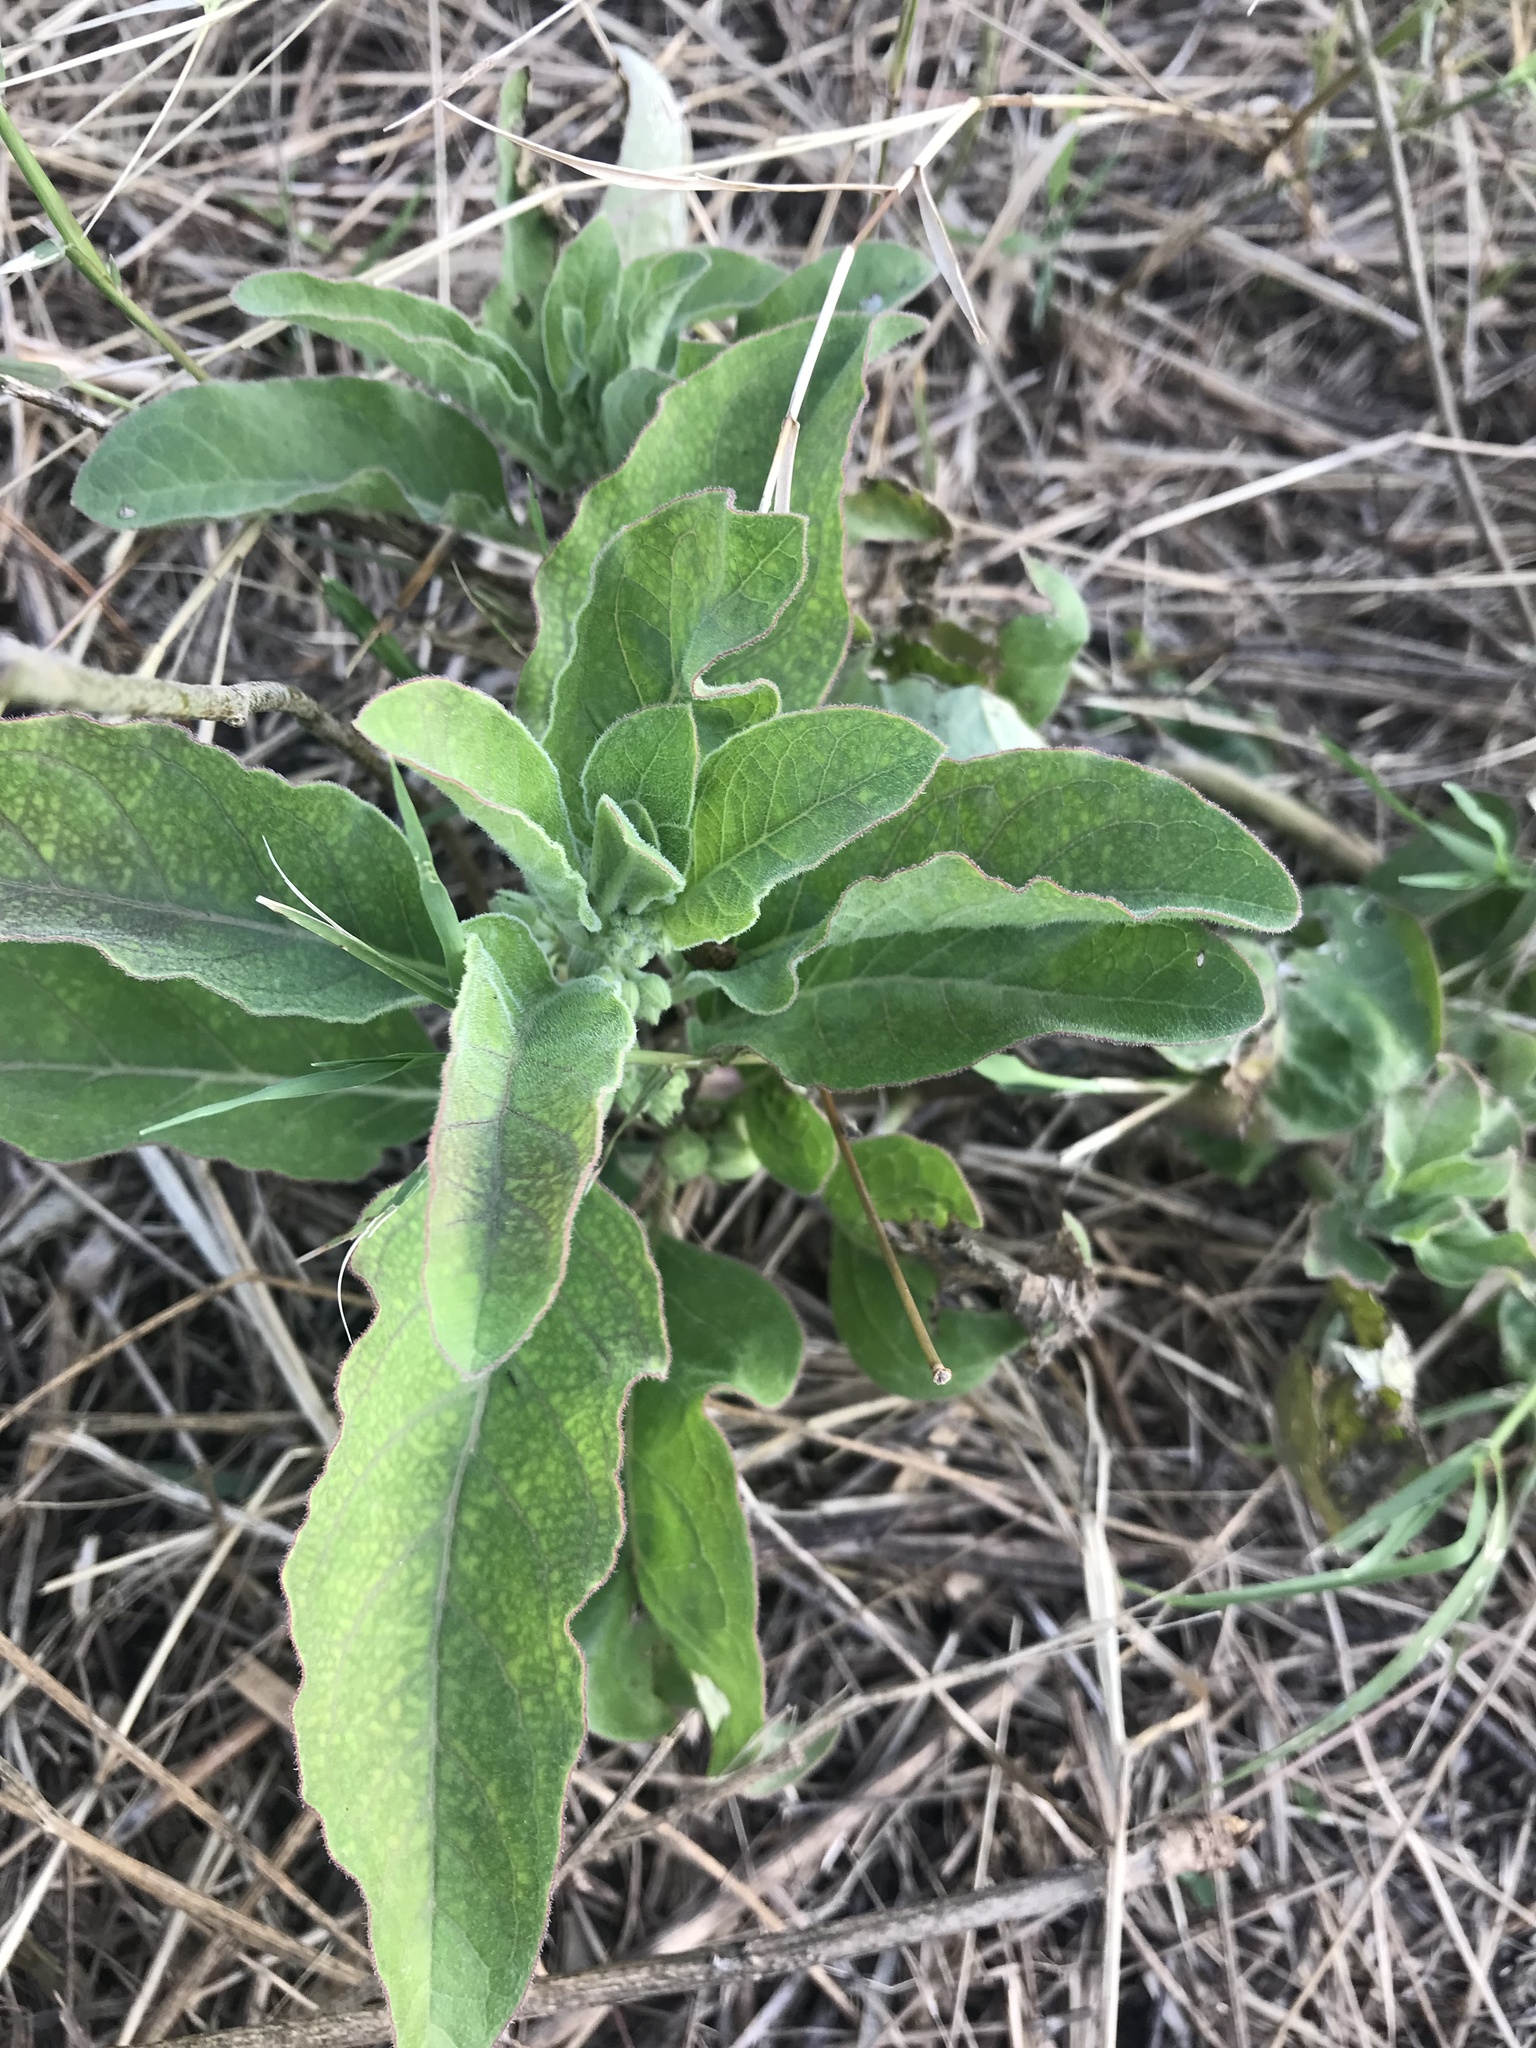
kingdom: Plantae
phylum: Tracheophyta
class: Magnoliopsida
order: Gentianales
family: Apocynaceae
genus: Asclepias
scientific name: Asclepias oenotheroides
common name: Zizotes milkweed
